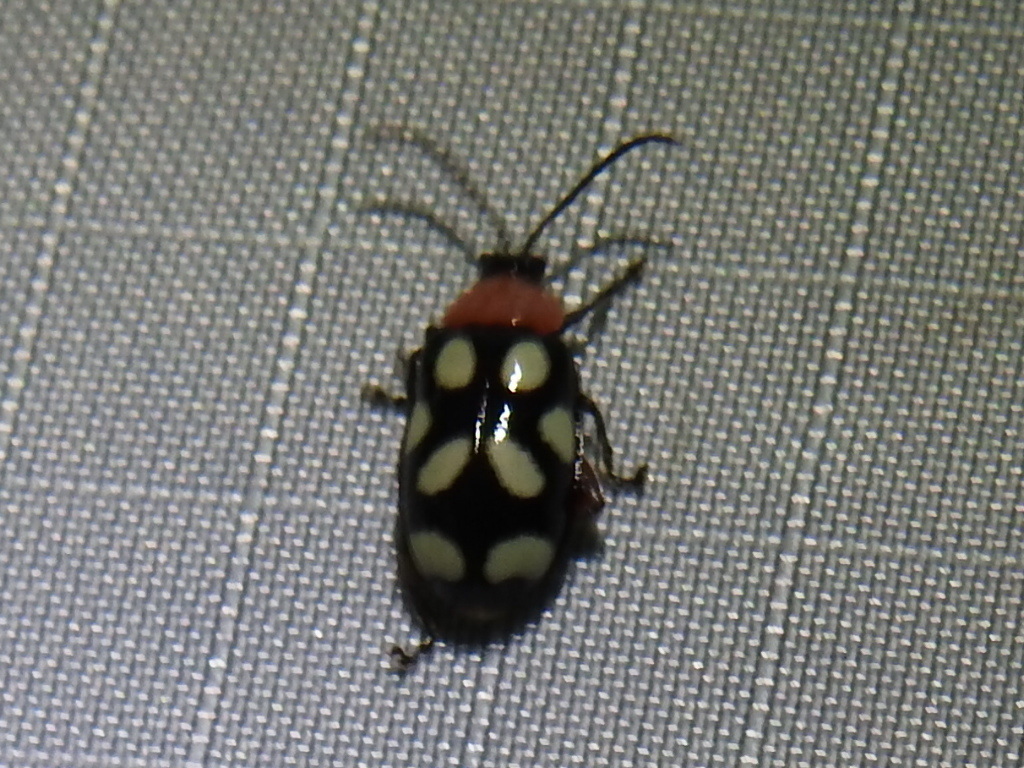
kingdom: Animalia
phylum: Arthropoda
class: Insecta
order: Coleoptera
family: Chrysomelidae
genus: Omophoita
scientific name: Omophoita cyanipennis
